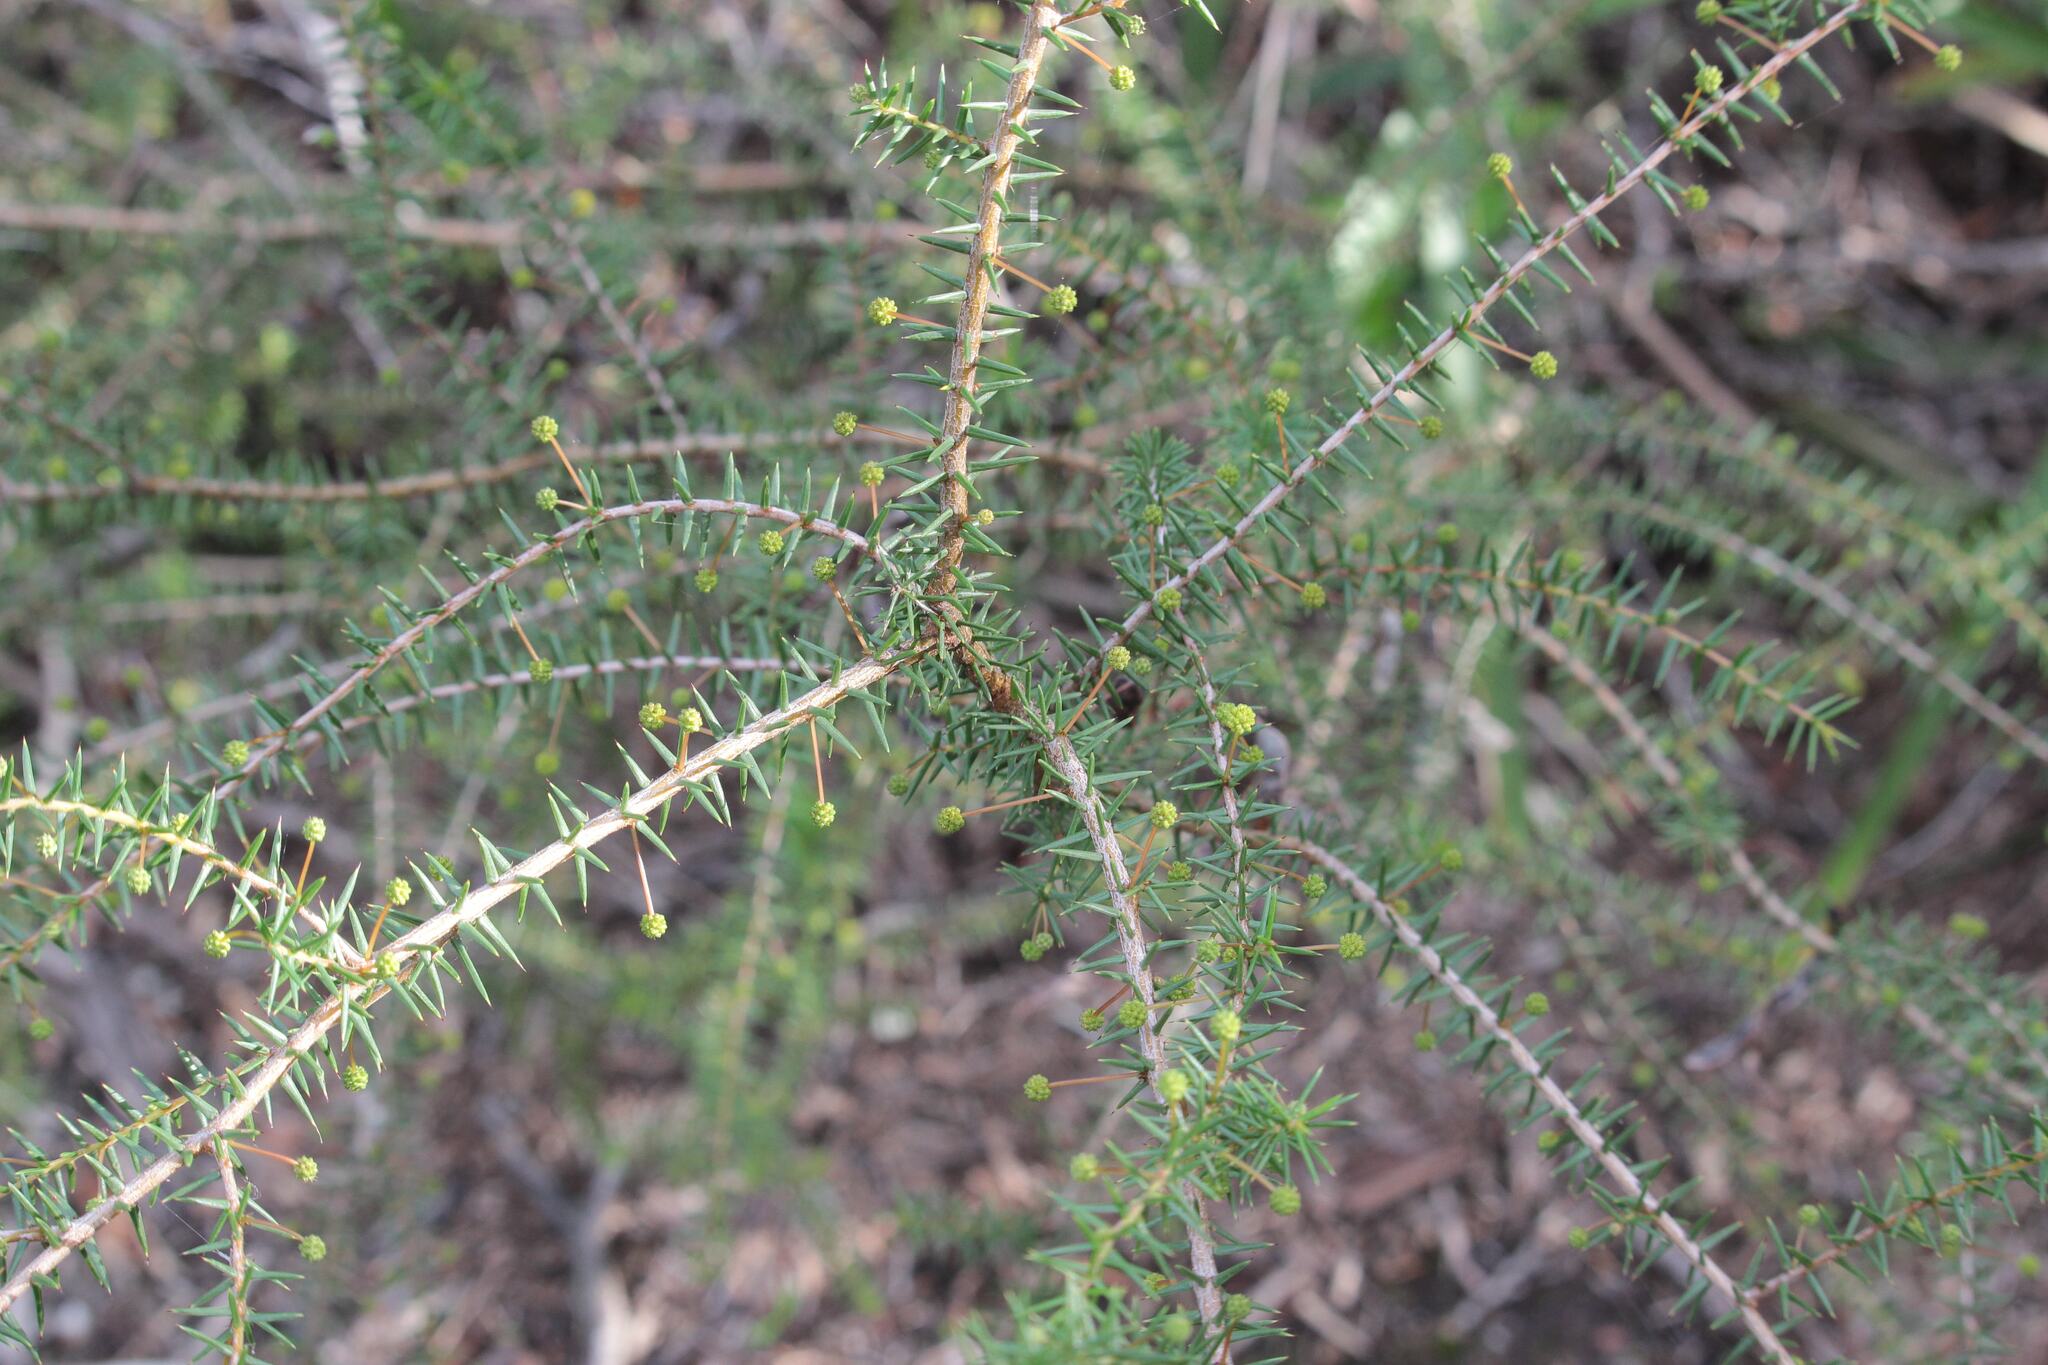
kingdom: Plantae
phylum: Tracheophyta
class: Magnoliopsida
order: Fabales
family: Fabaceae
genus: Acacia
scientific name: Acacia ulicifolia
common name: Juniper wattle
